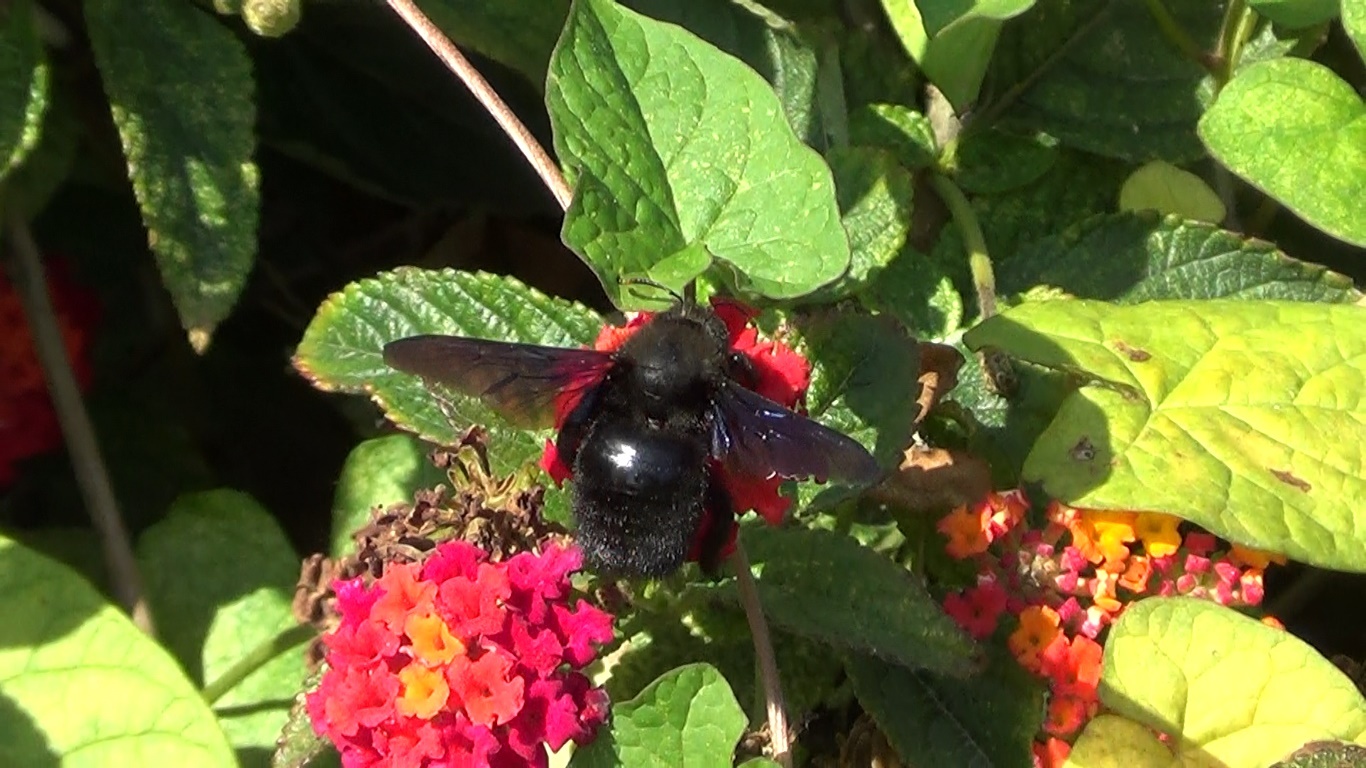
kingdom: Animalia
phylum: Arthropoda
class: Insecta
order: Hymenoptera
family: Apidae
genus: Xylocopa
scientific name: Xylocopa violacea
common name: Violet carpenter bee
